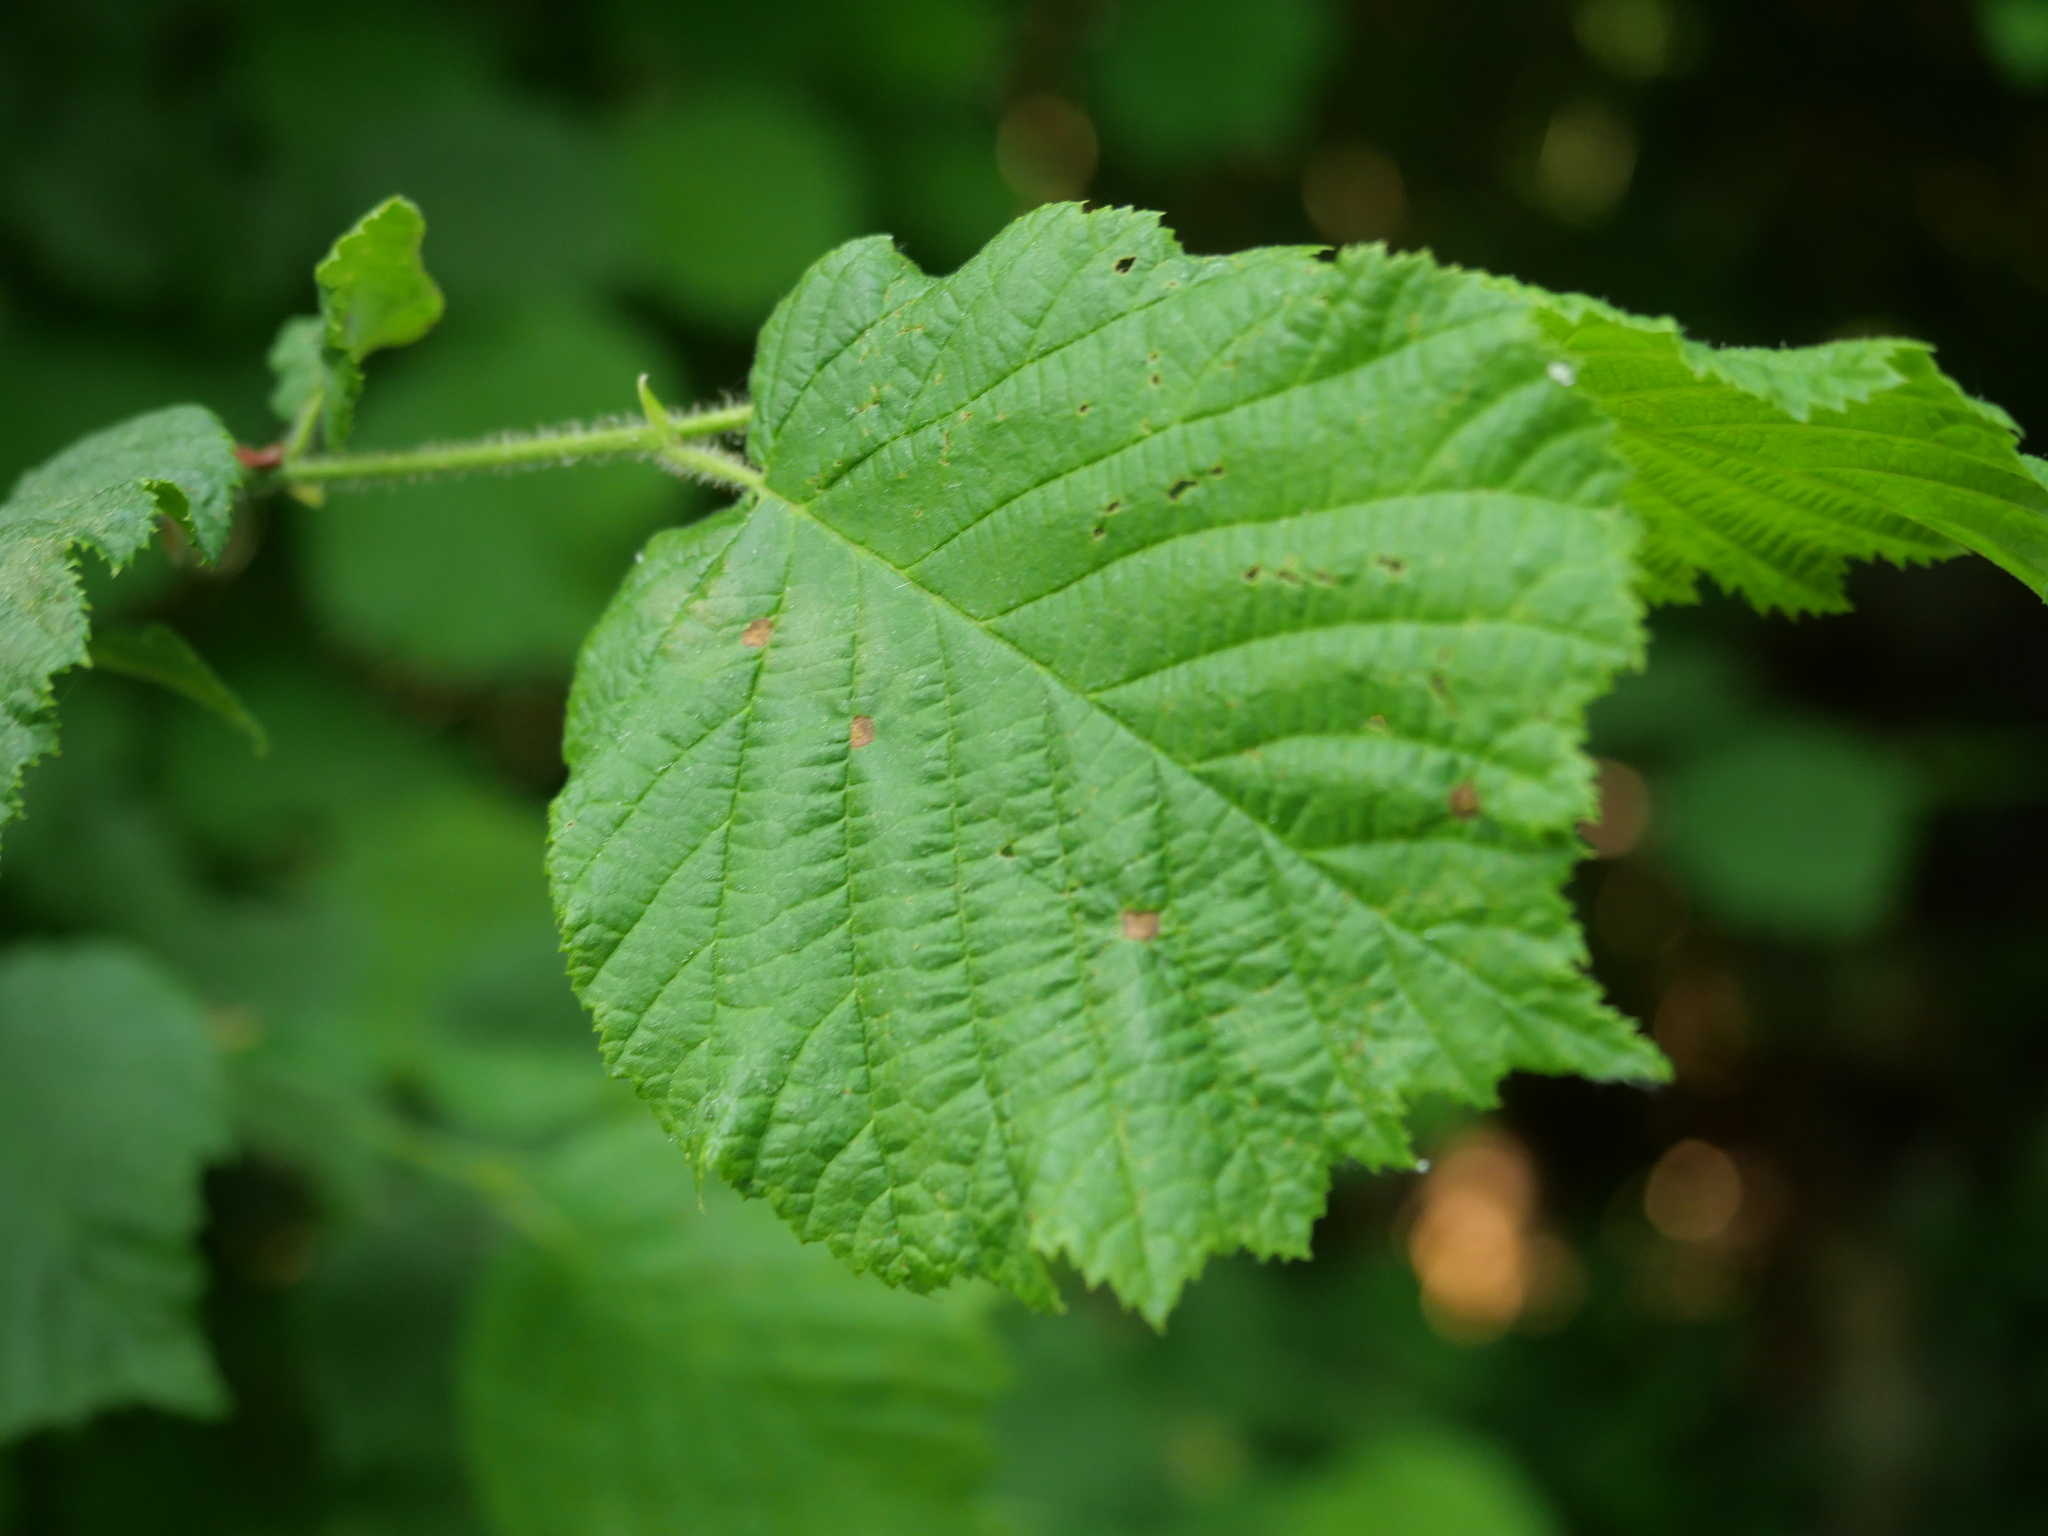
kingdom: Plantae
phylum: Tracheophyta
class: Magnoliopsida
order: Fagales
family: Betulaceae
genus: Corylus
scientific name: Corylus avellana
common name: European hazel
